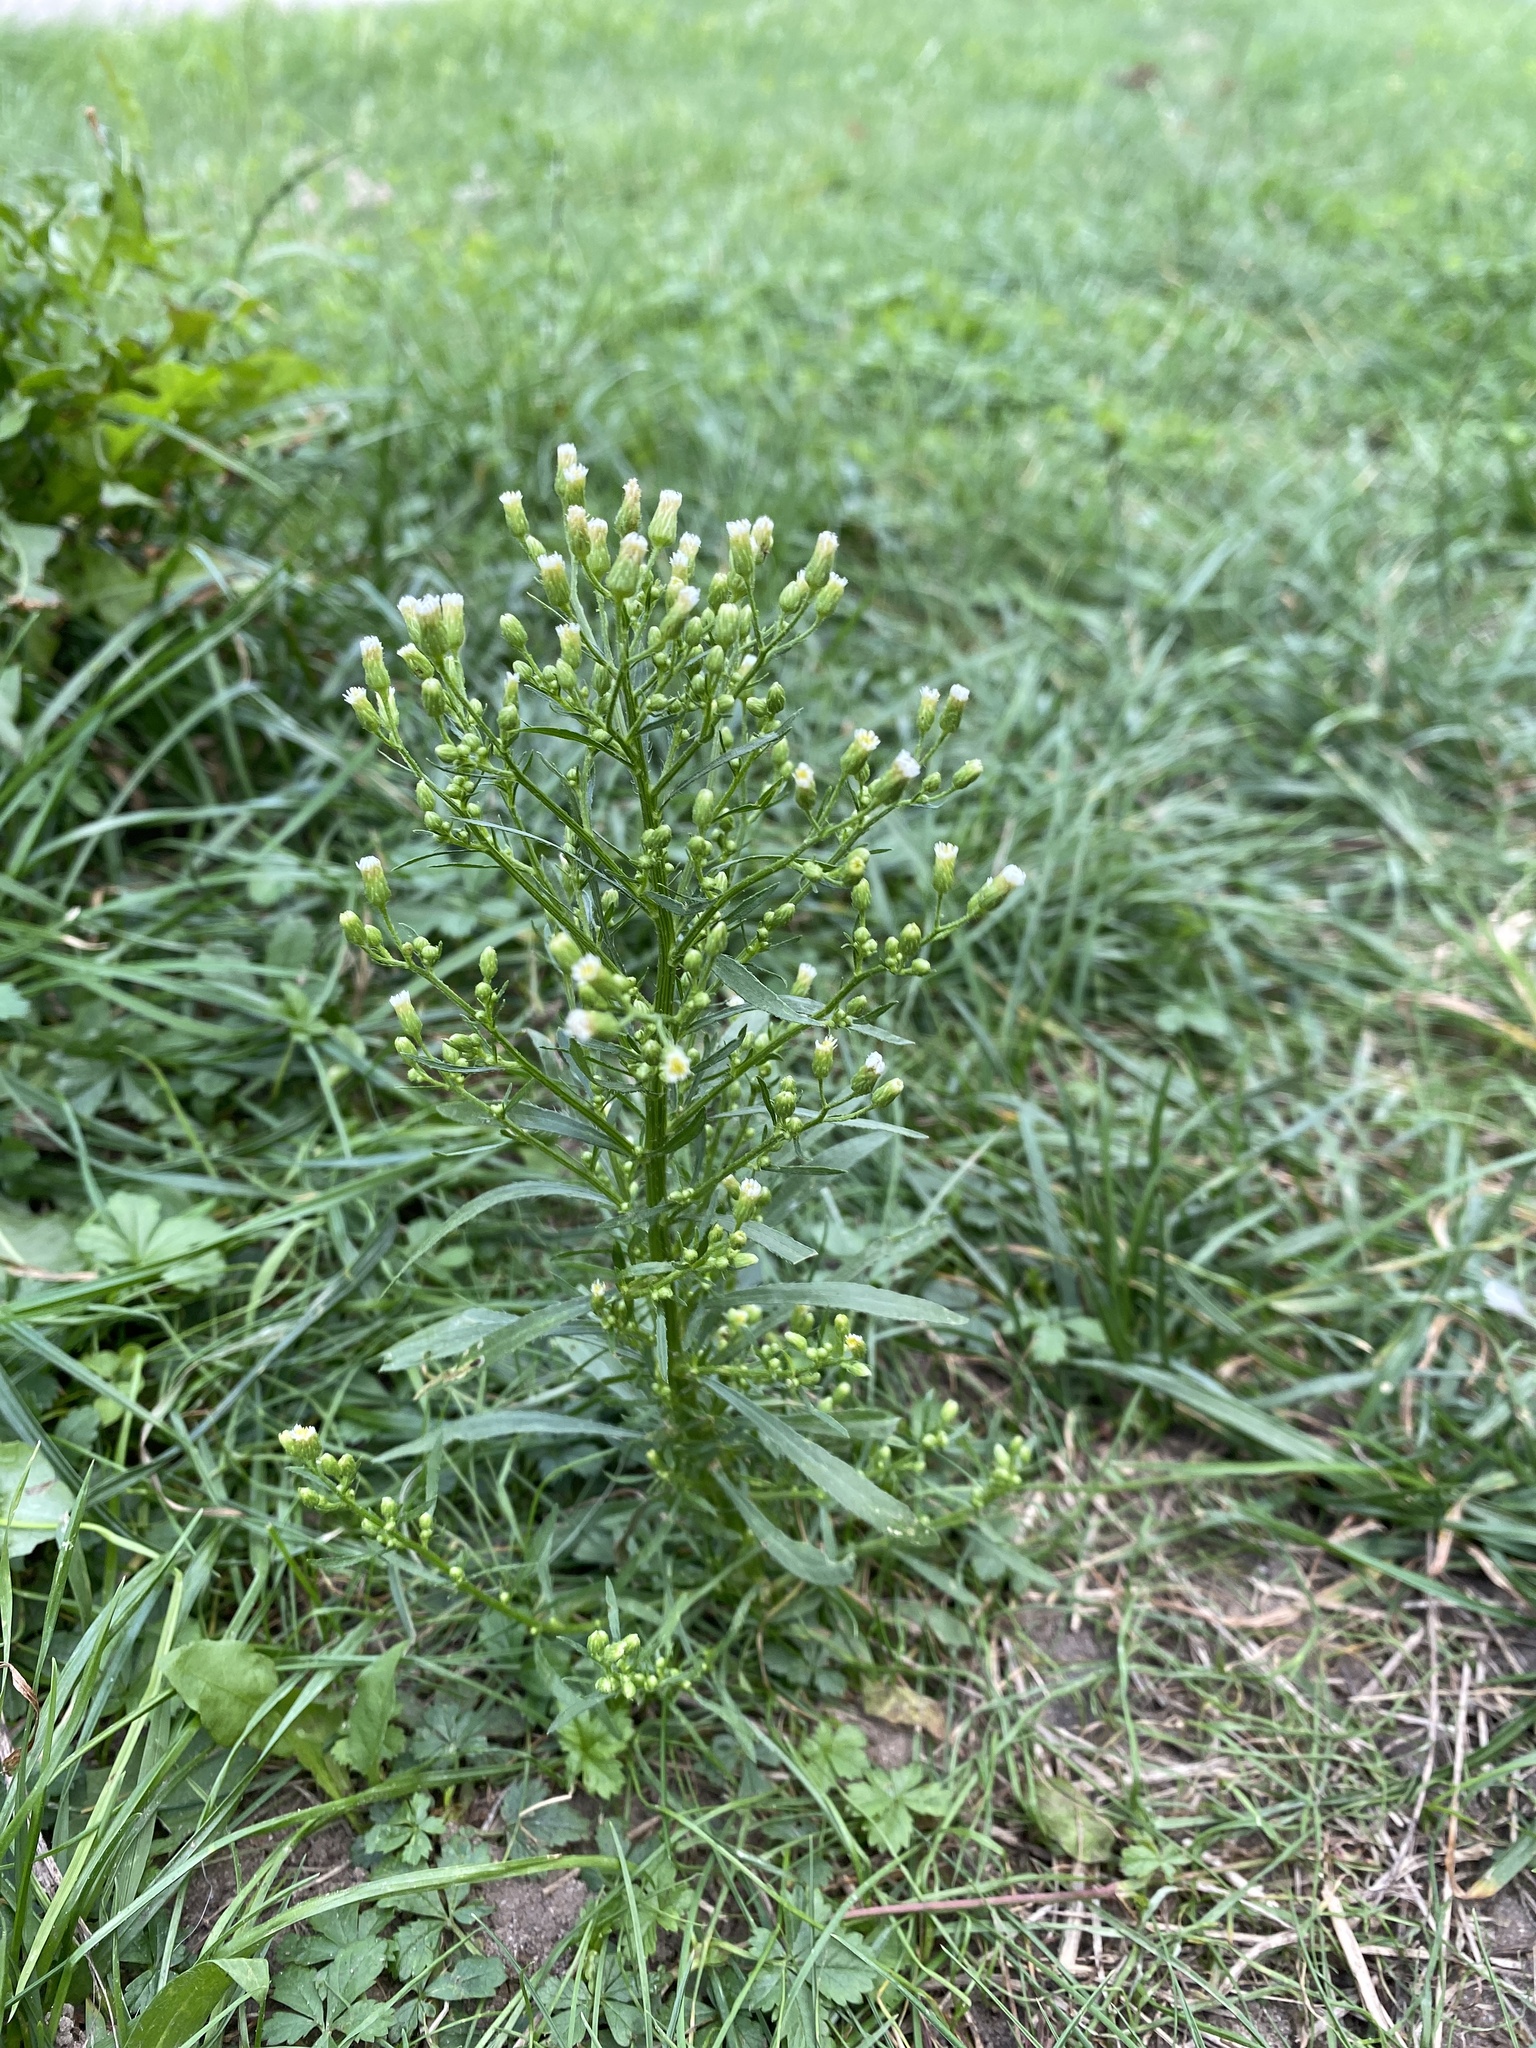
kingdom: Plantae
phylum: Tracheophyta
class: Magnoliopsida
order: Asterales
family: Asteraceae
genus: Erigeron
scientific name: Erigeron canadensis
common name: Canadian fleabane
